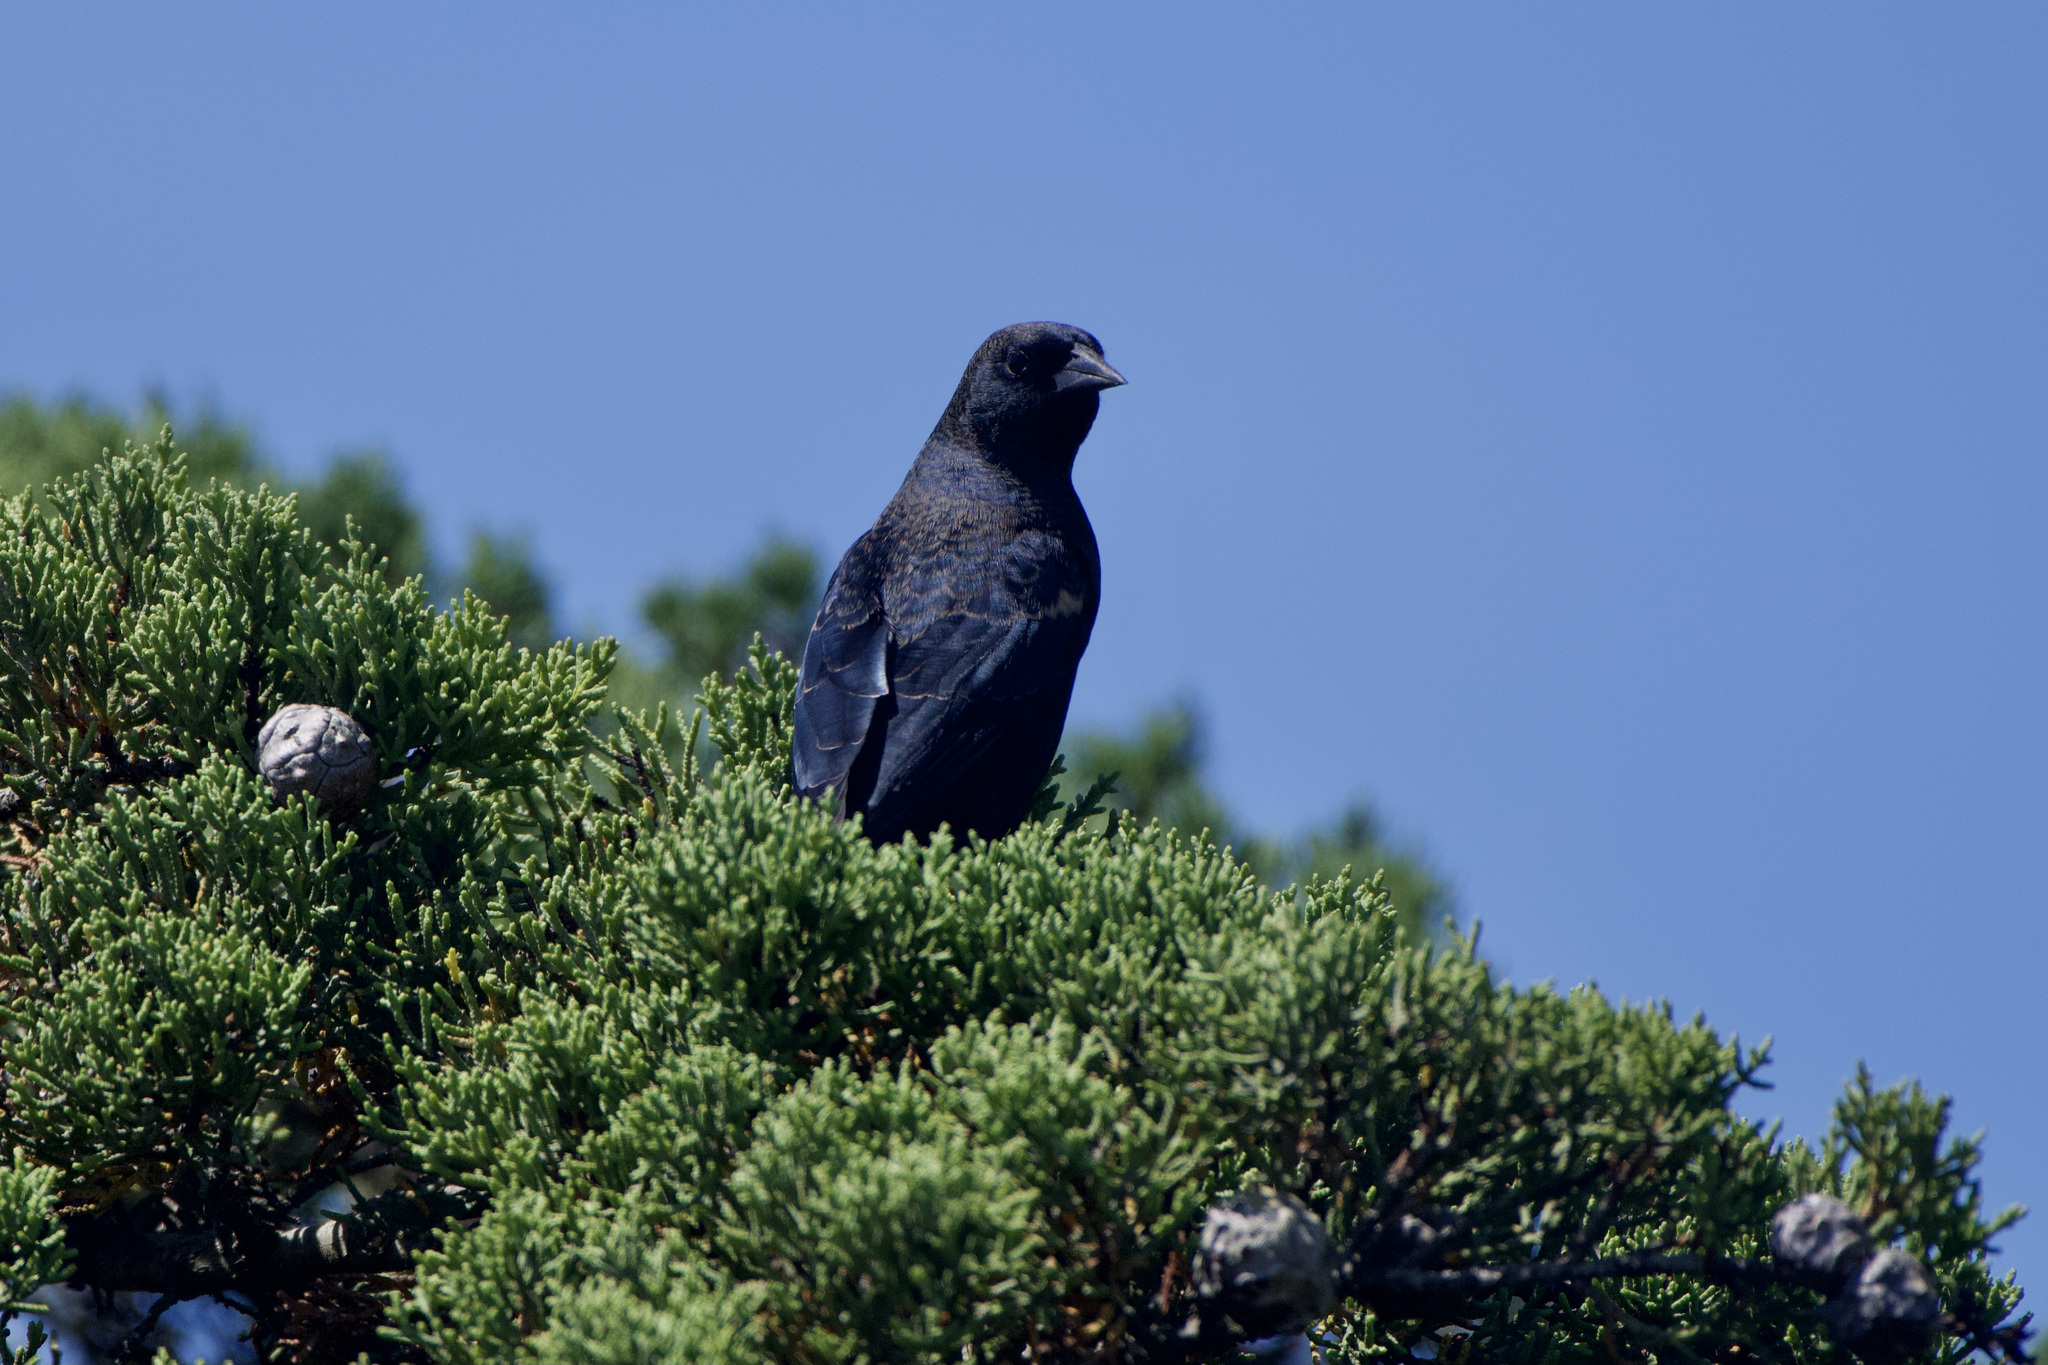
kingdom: Animalia
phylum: Chordata
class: Aves
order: Passeriformes
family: Icteridae
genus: Agelaius
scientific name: Agelaius tricolor
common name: Tricolored blackbird
